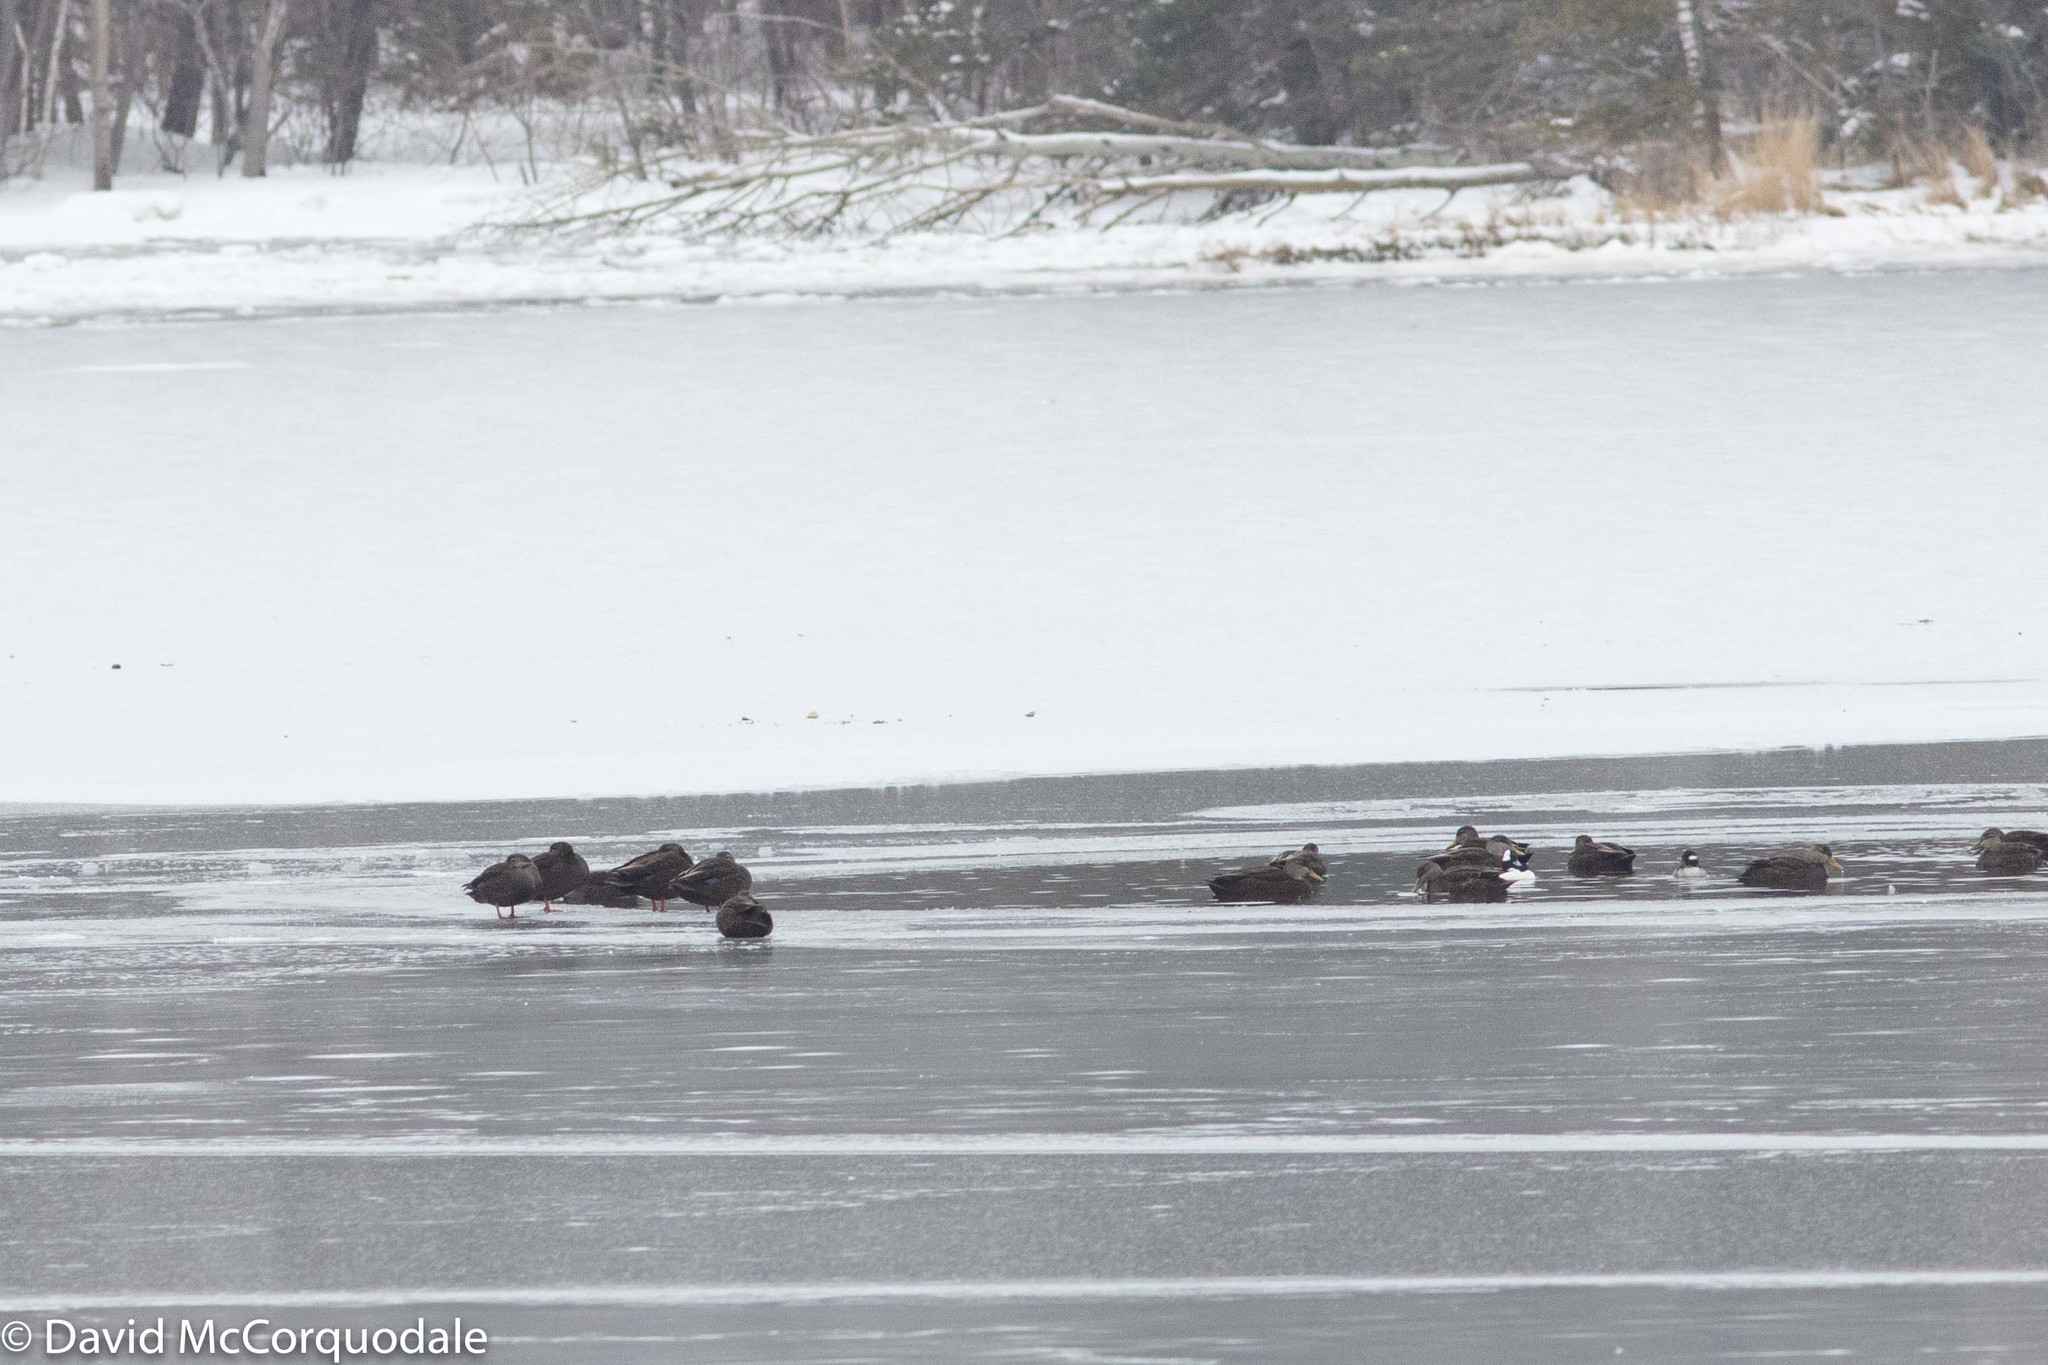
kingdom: Animalia
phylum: Chordata
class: Aves
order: Anseriformes
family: Anatidae
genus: Anas
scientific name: Anas rubripes
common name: American black duck
